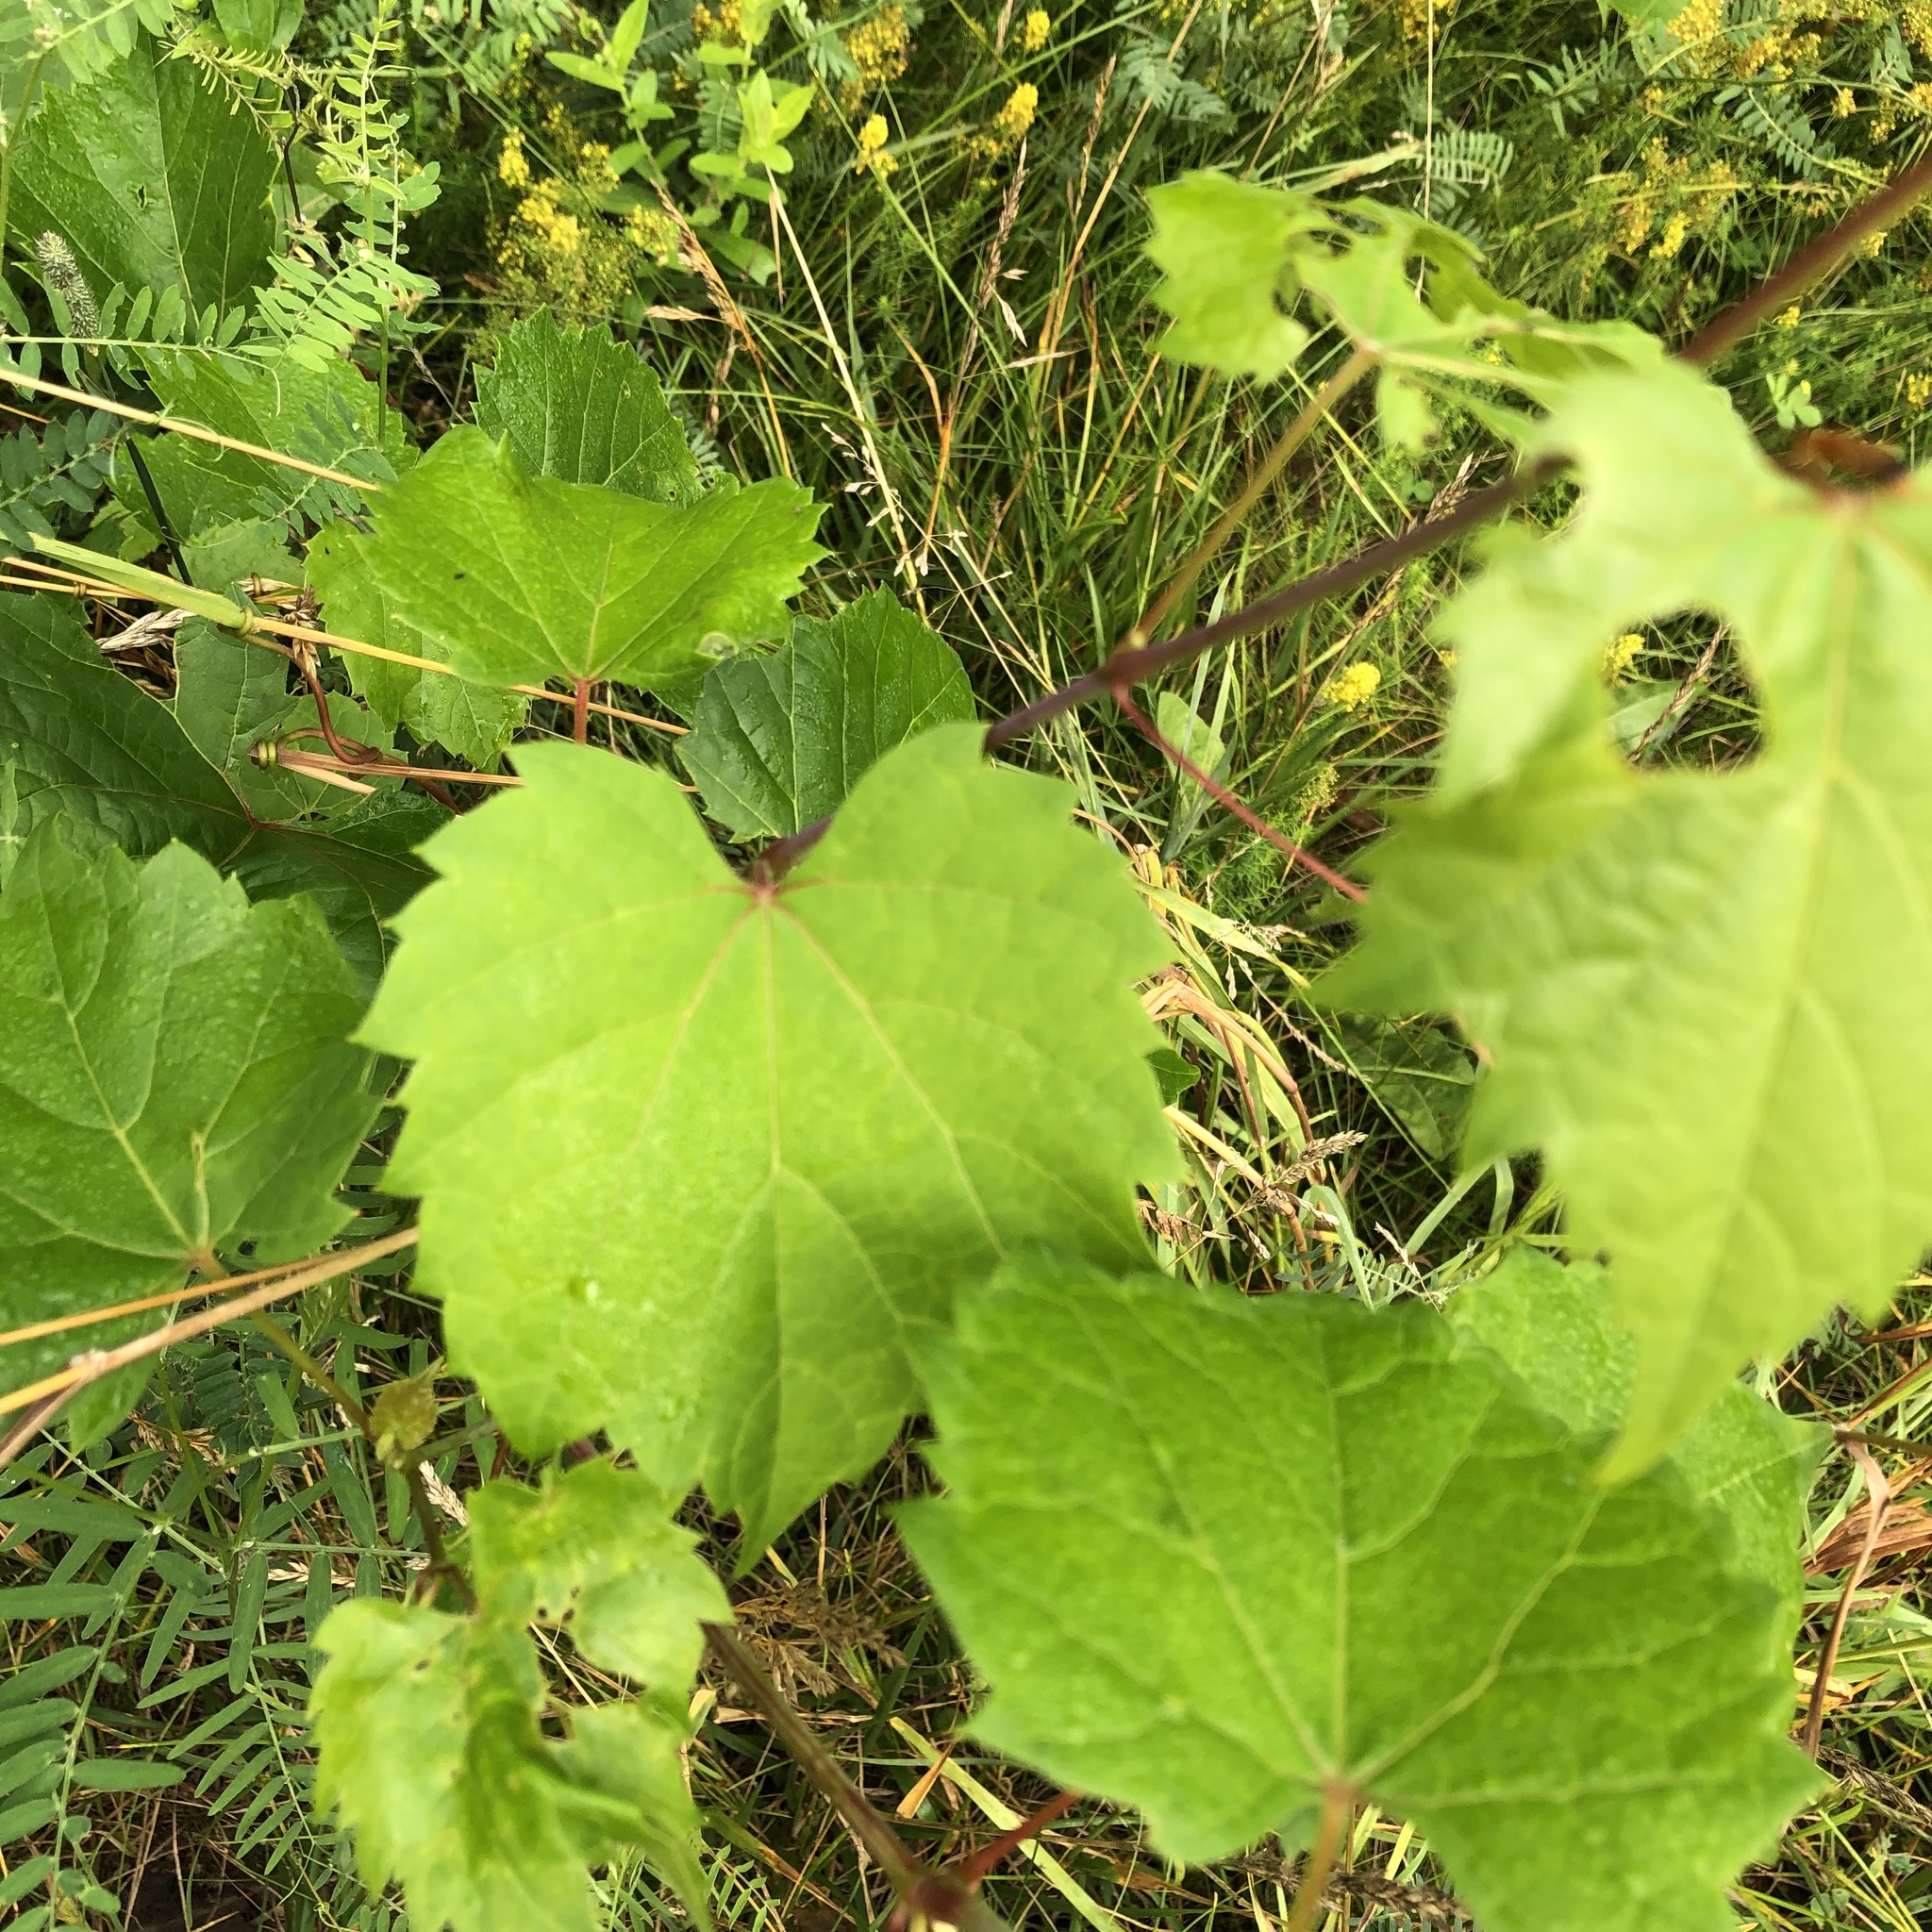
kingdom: Plantae
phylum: Tracheophyta
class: Magnoliopsida
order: Vitales
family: Vitaceae
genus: Vitis
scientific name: Vitis riparia
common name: Frost grape
